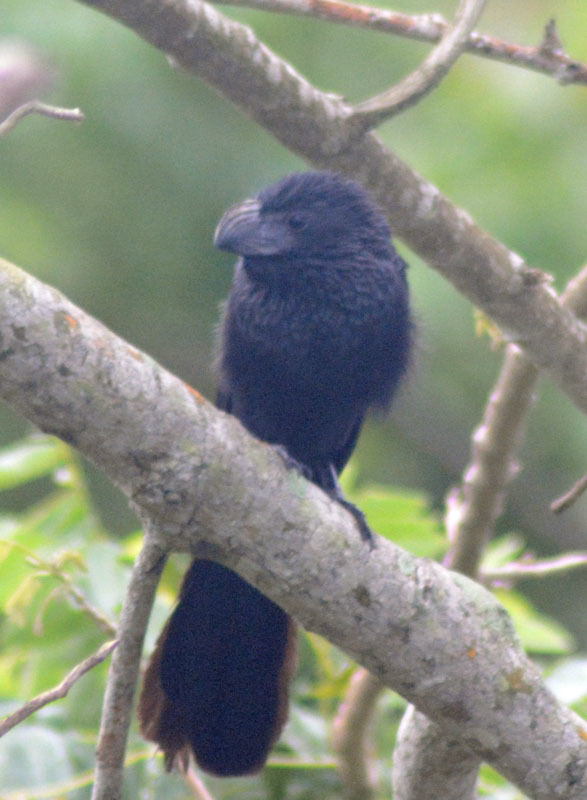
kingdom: Animalia
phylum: Chordata
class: Aves
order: Cuculiformes
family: Cuculidae
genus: Crotophaga
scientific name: Crotophaga sulcirostris
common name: Groove-billed ani
